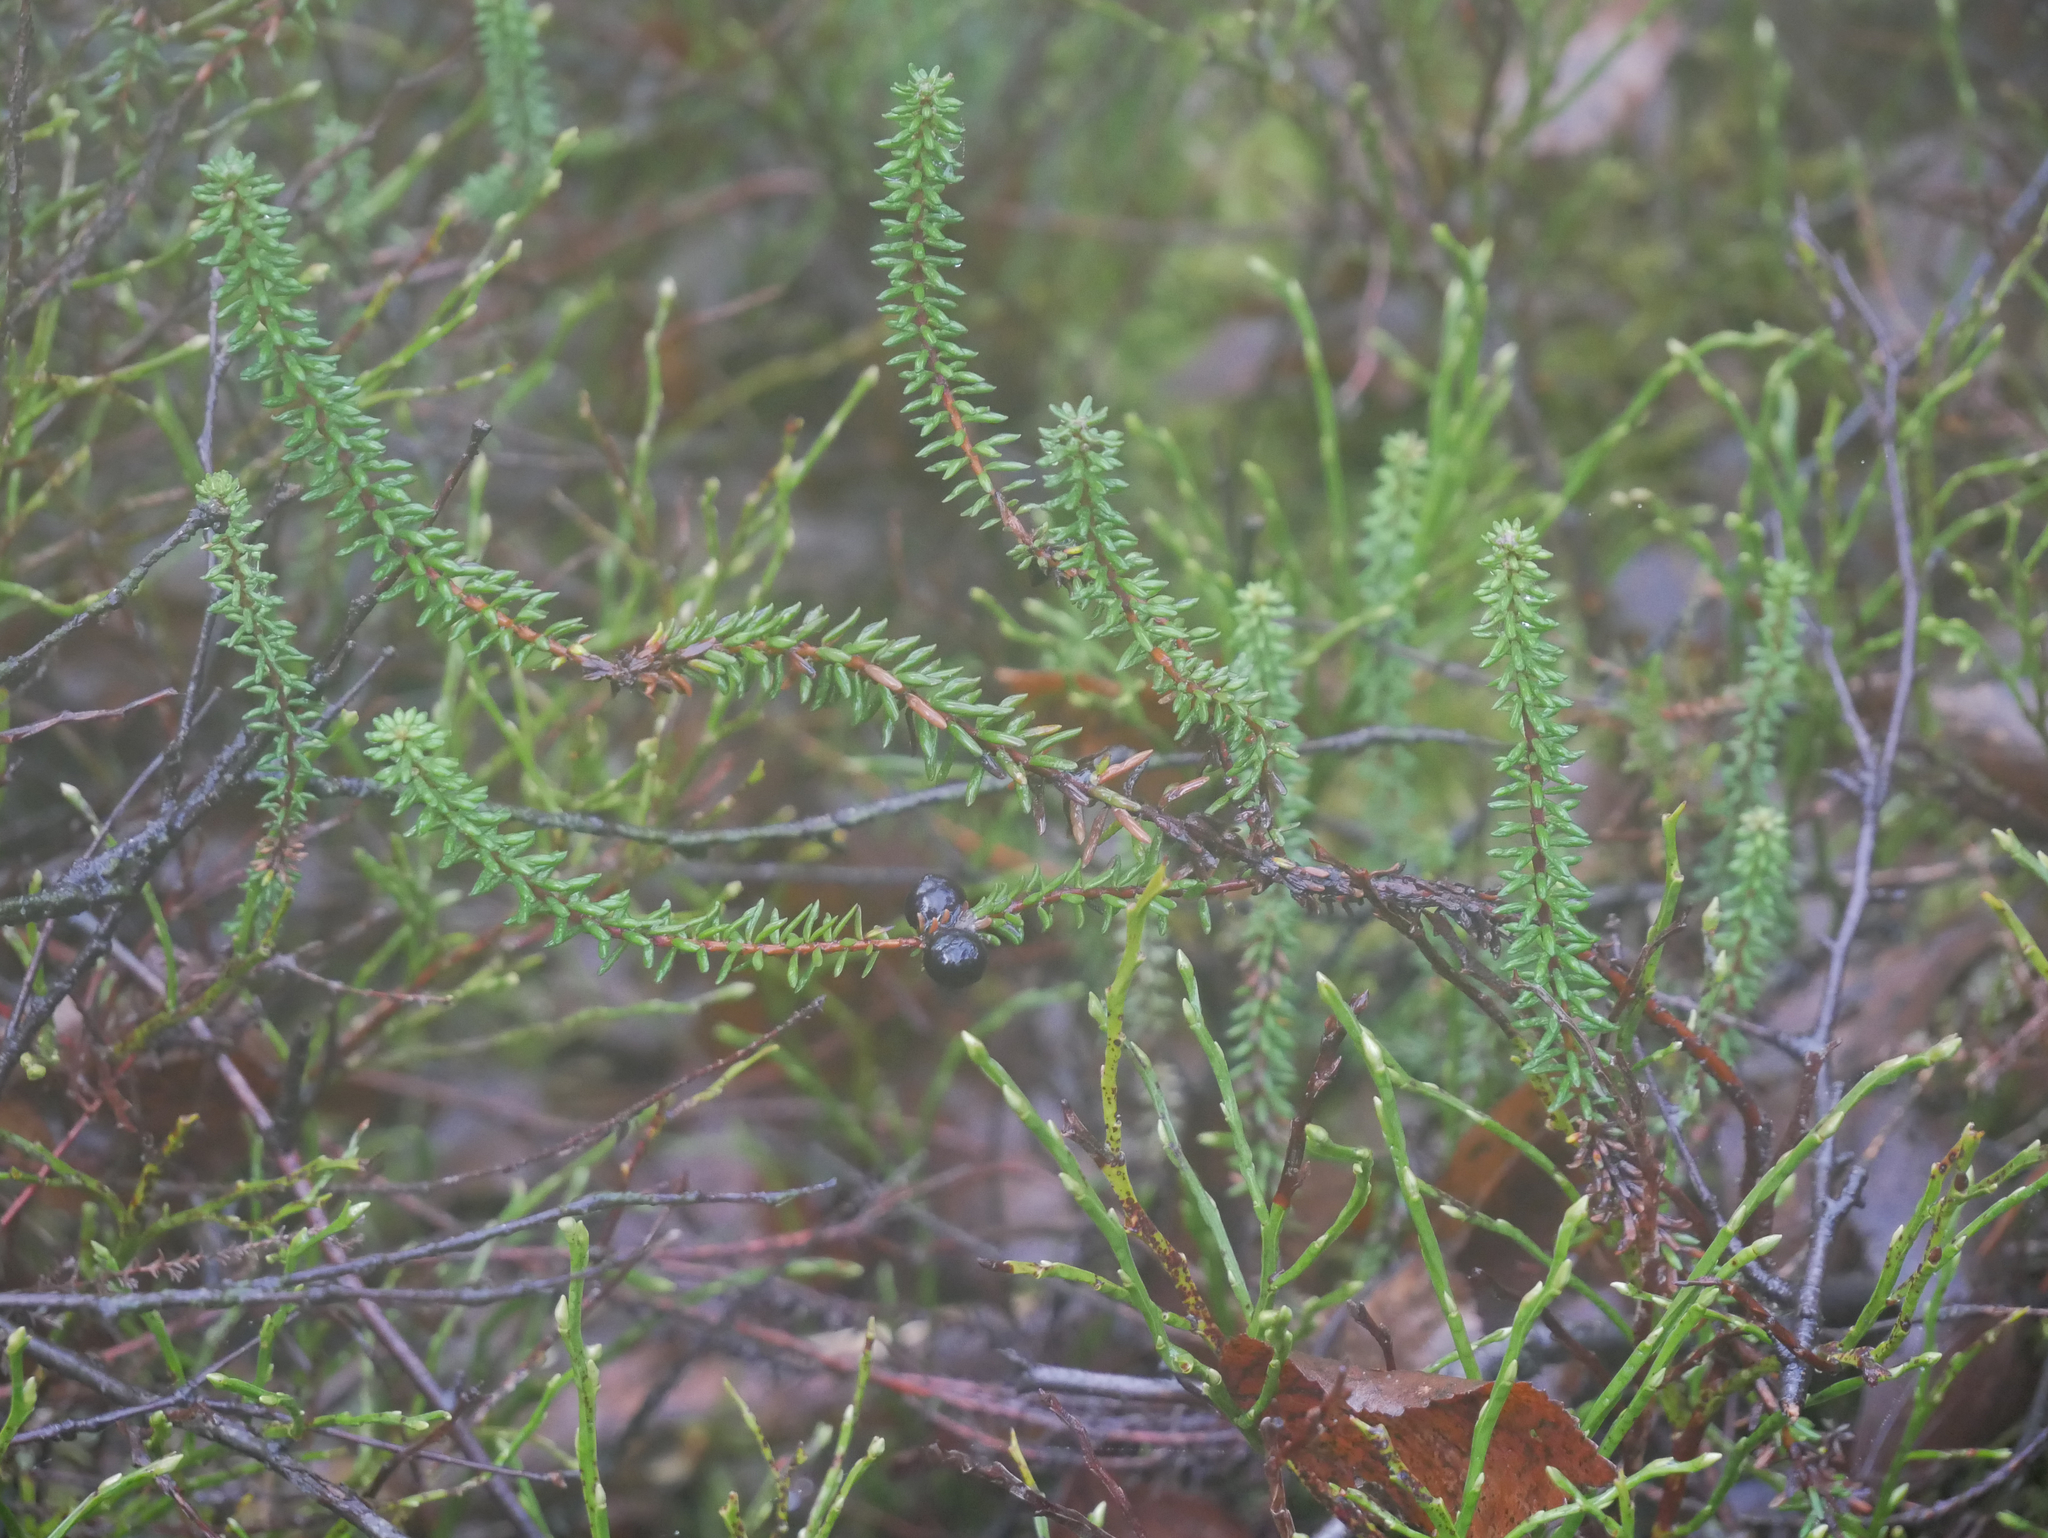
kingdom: Plantae
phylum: Tracheophyta
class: Magnoliopsida
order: Ericales
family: Ericaceae
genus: Empetrum
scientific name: Empetrum nigrum
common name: Black crowberry
